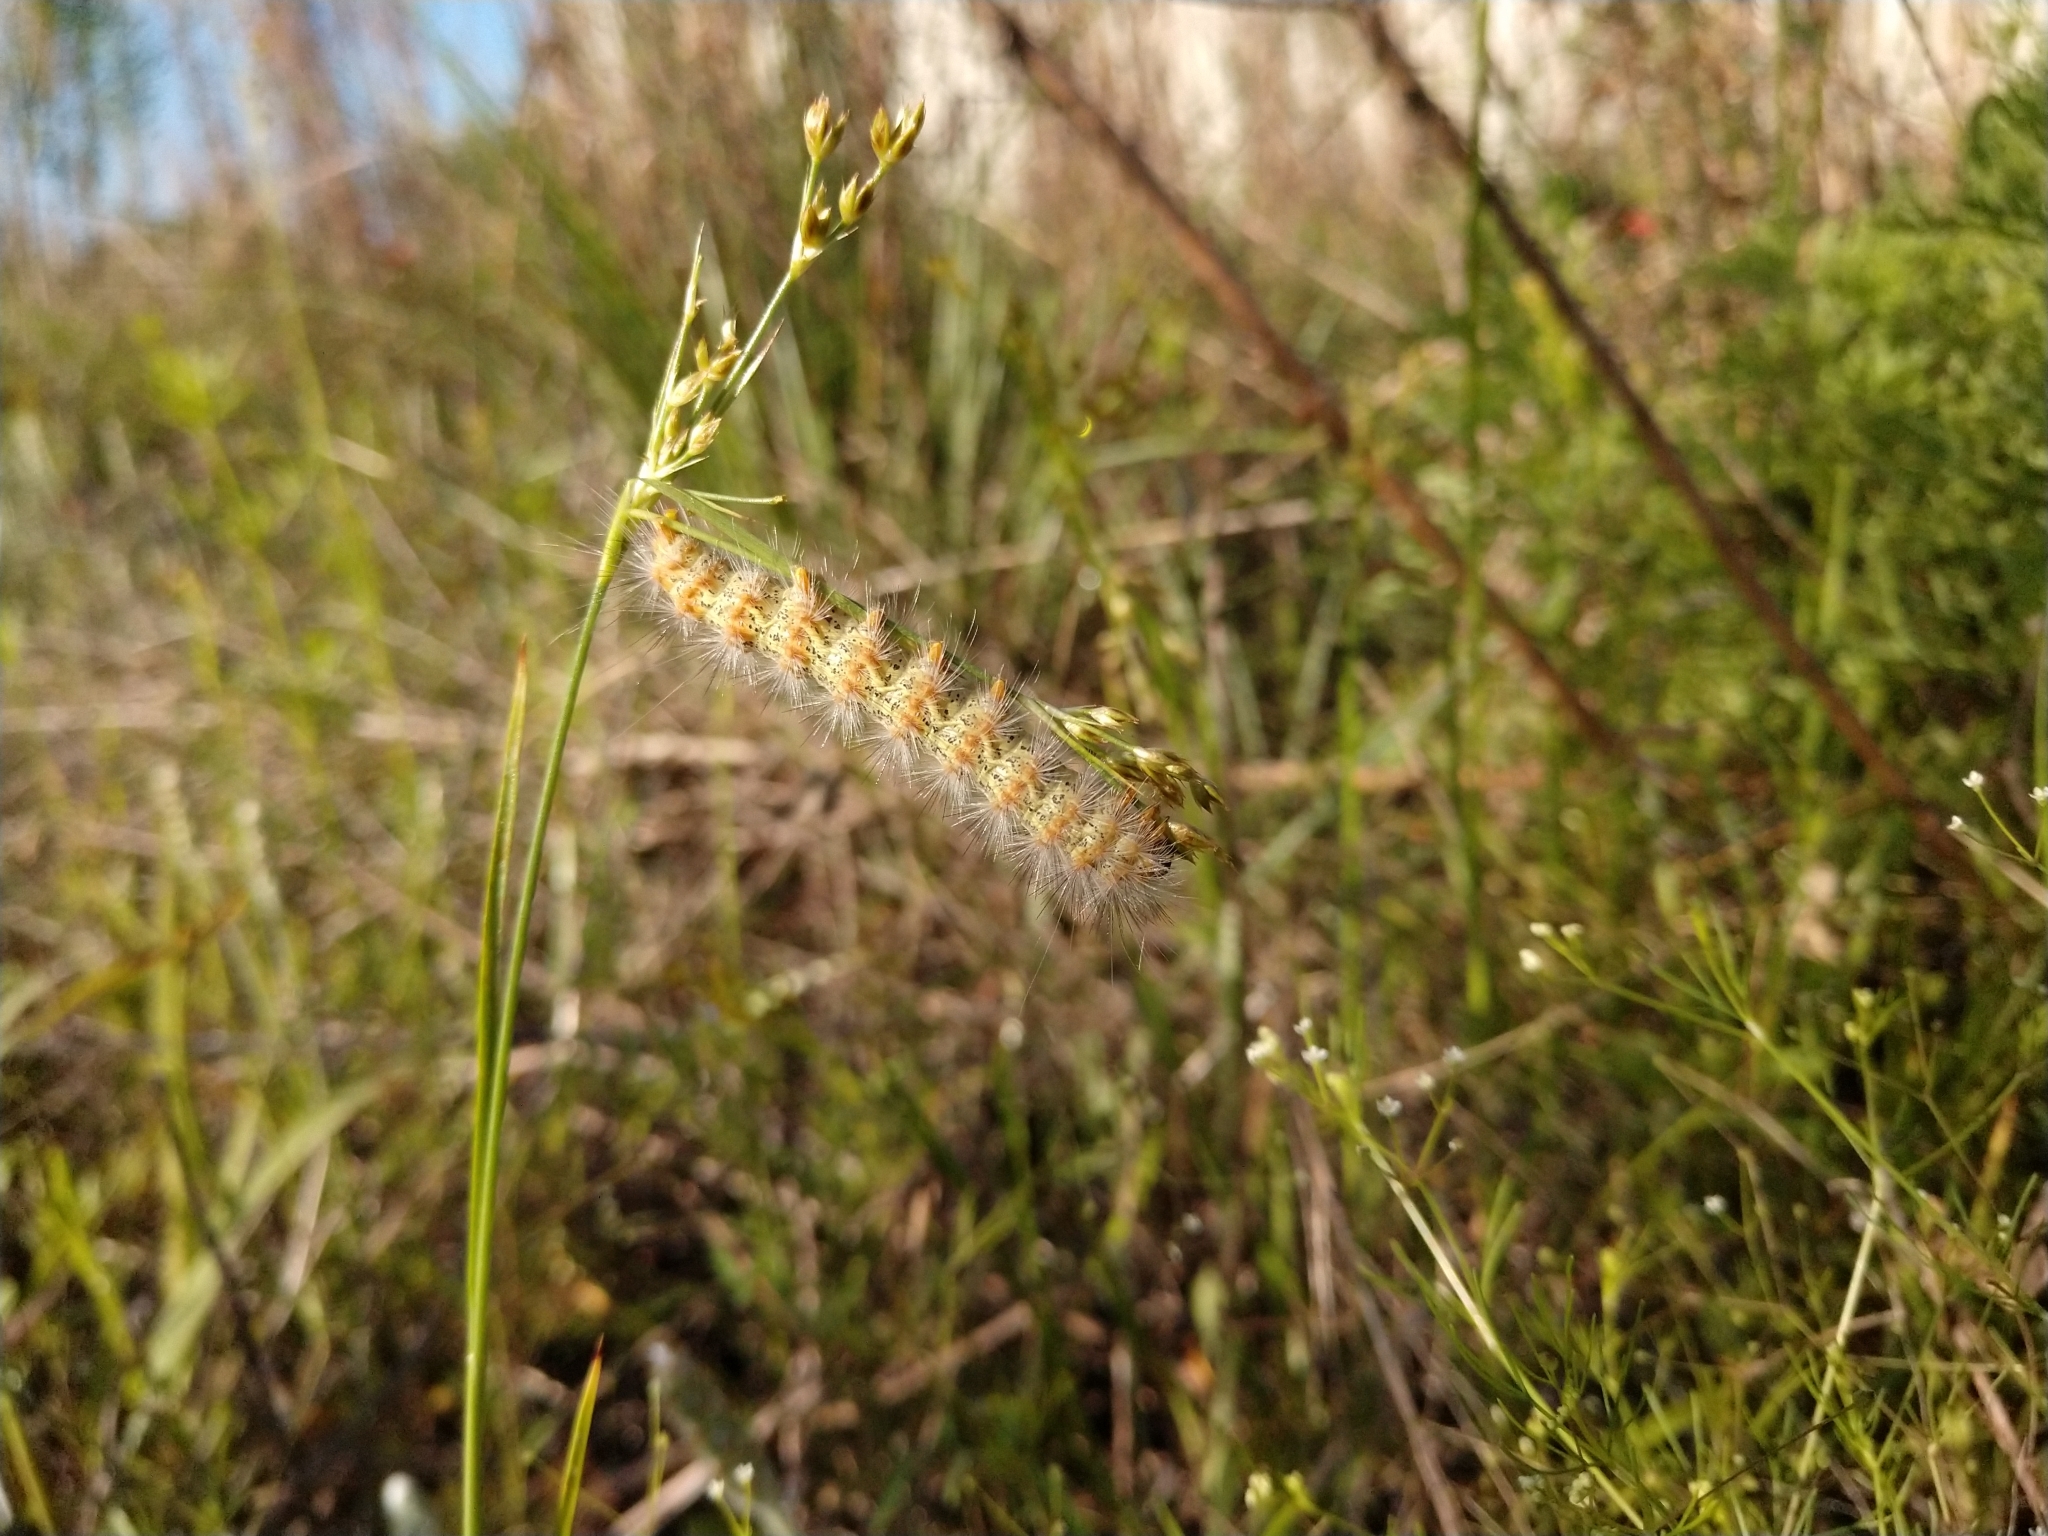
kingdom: Animalia
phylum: Arthropoda
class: Insecta
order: Lepidoptera
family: Erebidae
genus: Estigmene
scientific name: Estigmene acrea
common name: Salt marsh moth
